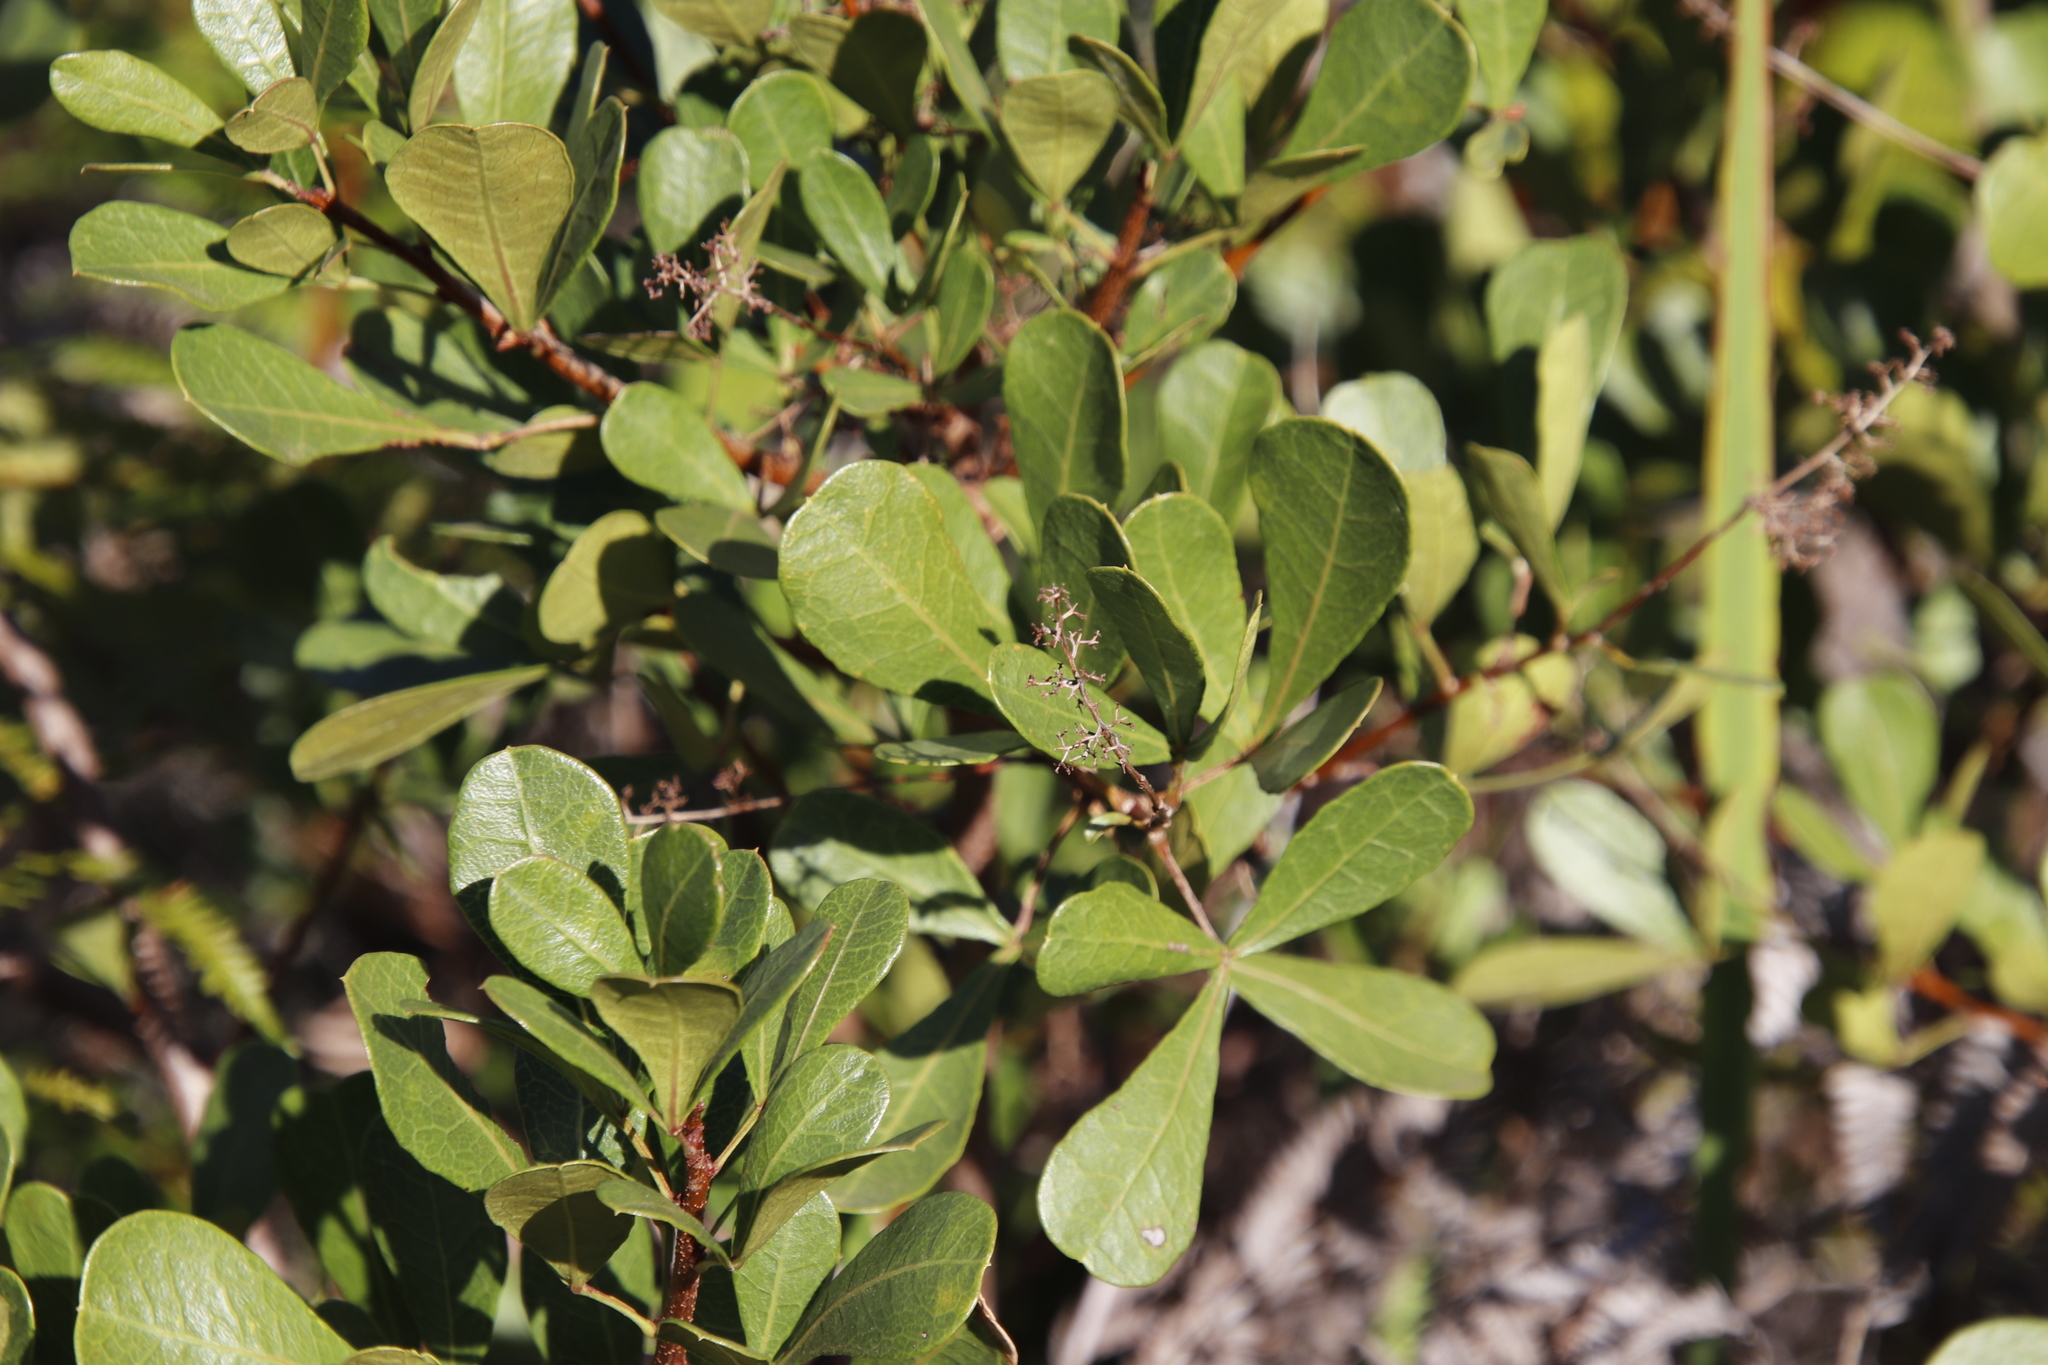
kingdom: Plantae
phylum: Tracheophyta
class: Magnoliopsida
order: Sapindales
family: Anacardiaceae
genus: Searsia
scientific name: Searsia laevigata
